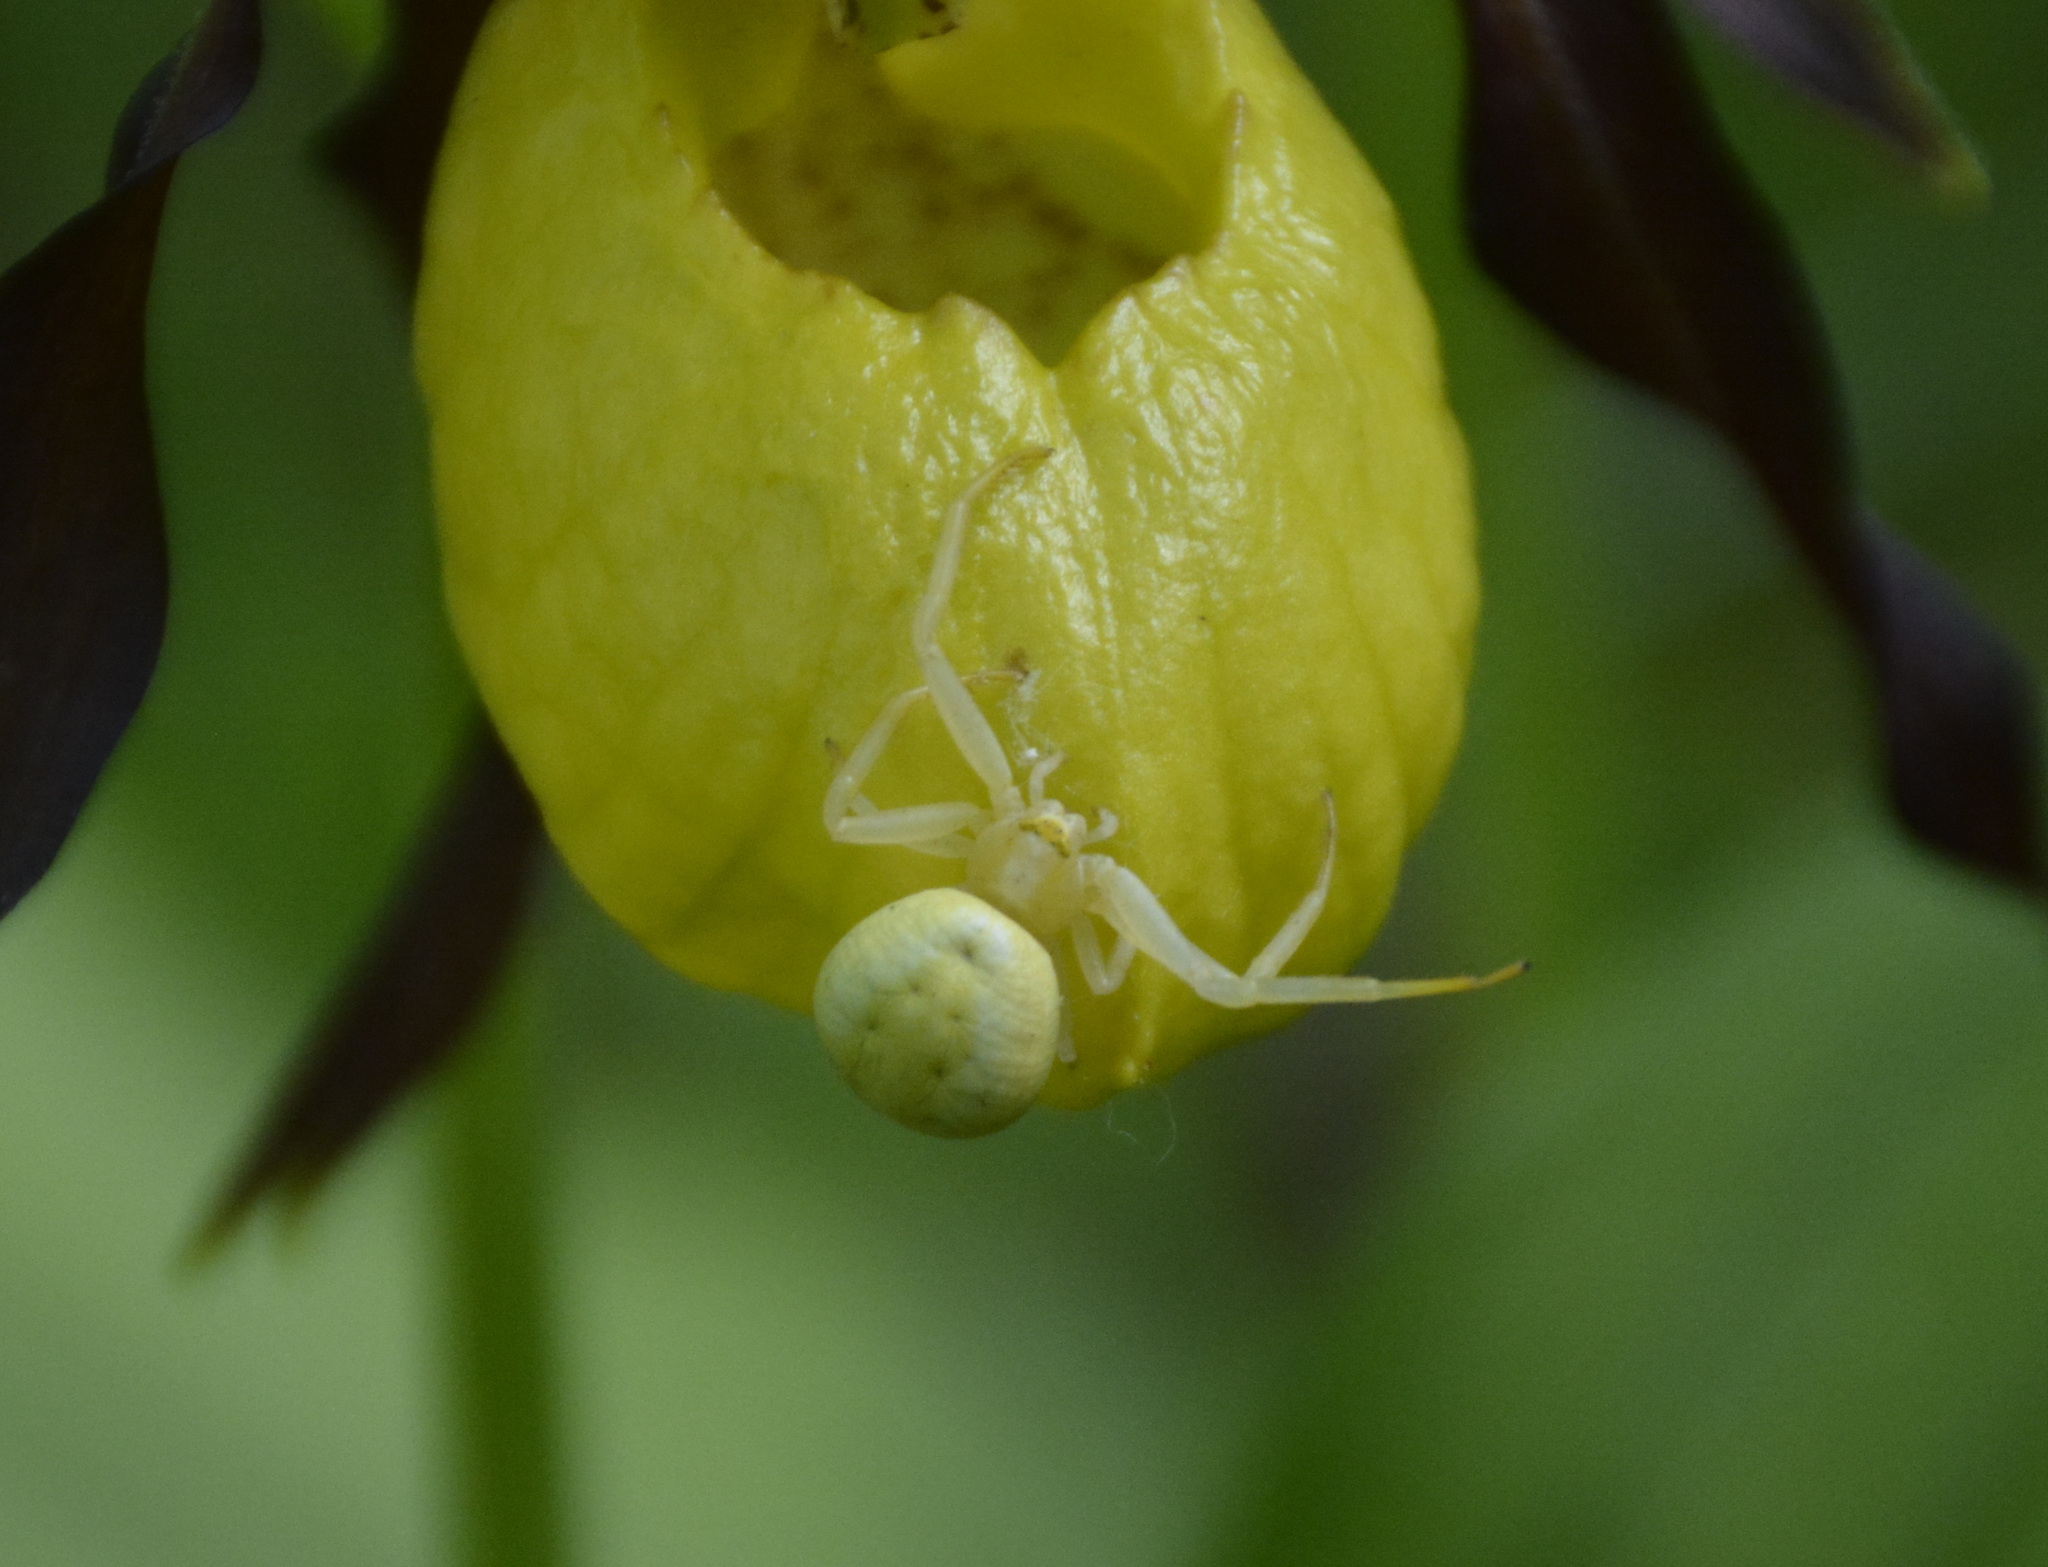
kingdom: Animalia
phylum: Arthropoda
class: Arachnida
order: Araneae
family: Thomisidae
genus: Misumena
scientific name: Misumena vatia
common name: Goldenrod crab spider
